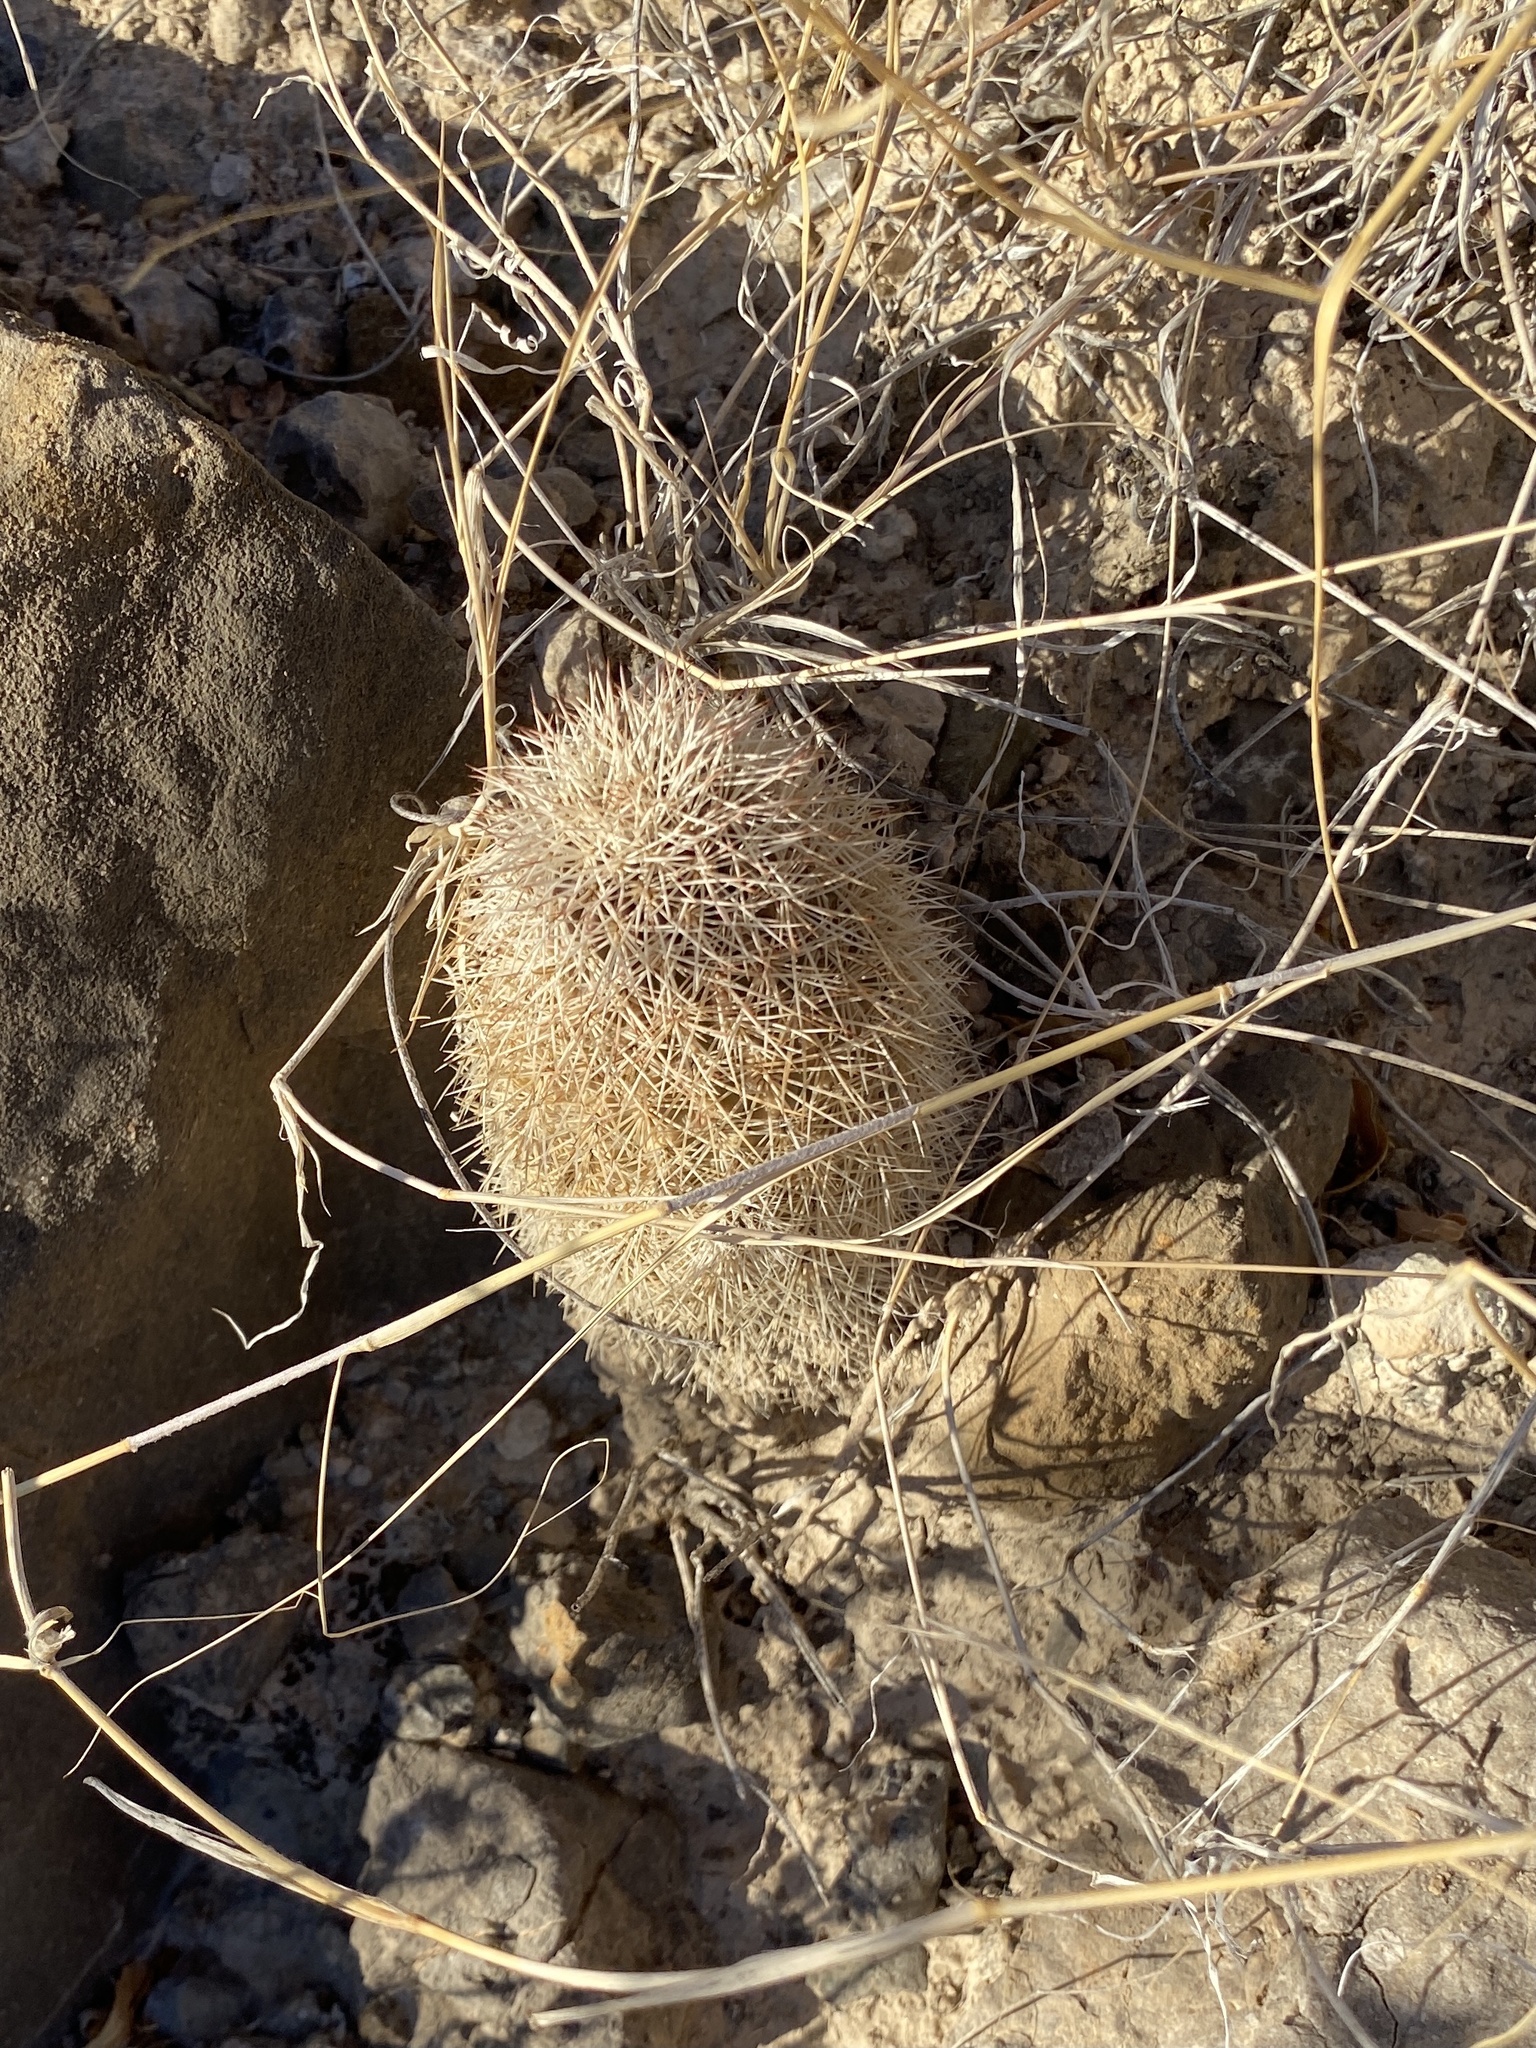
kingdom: Plantae
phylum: Tracheophyta
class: Magnoliopsida
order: Caryophyllales
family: Cactaceae
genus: Echinocereus
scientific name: Echinocereus dasyacanthus
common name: Spiny hedgehog cactus
